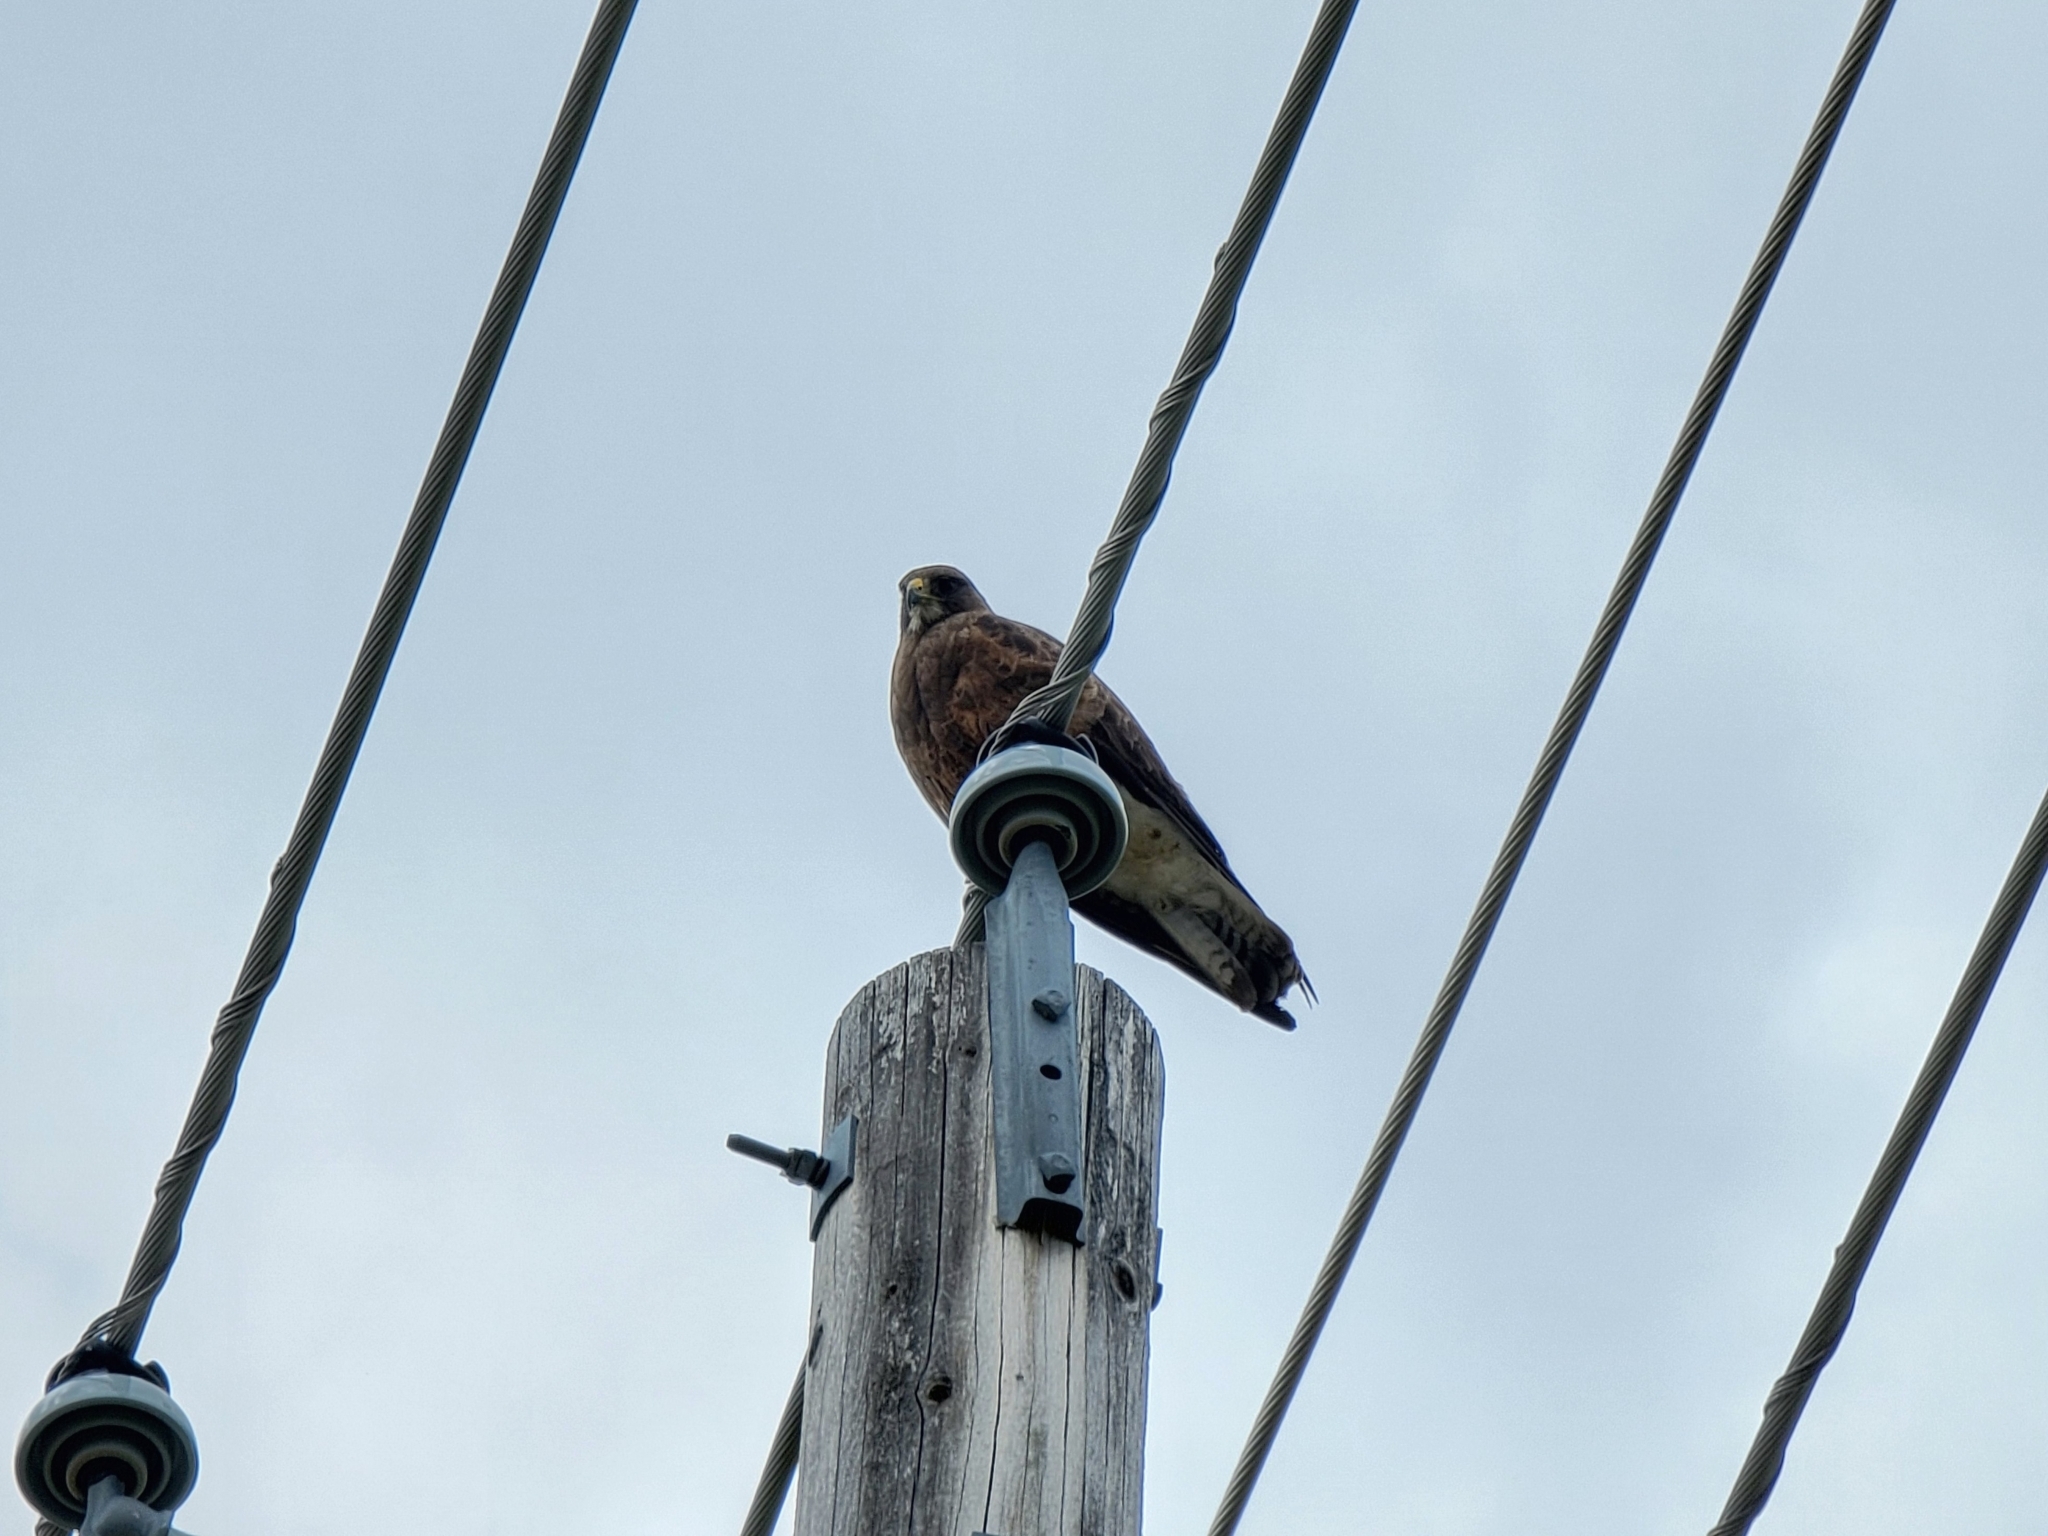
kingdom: Animalia
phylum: Chordata
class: Aves
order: Accipitriformes
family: Accipitridae
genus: Buteo
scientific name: Buteo swainsoni
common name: Swainson's hawk
